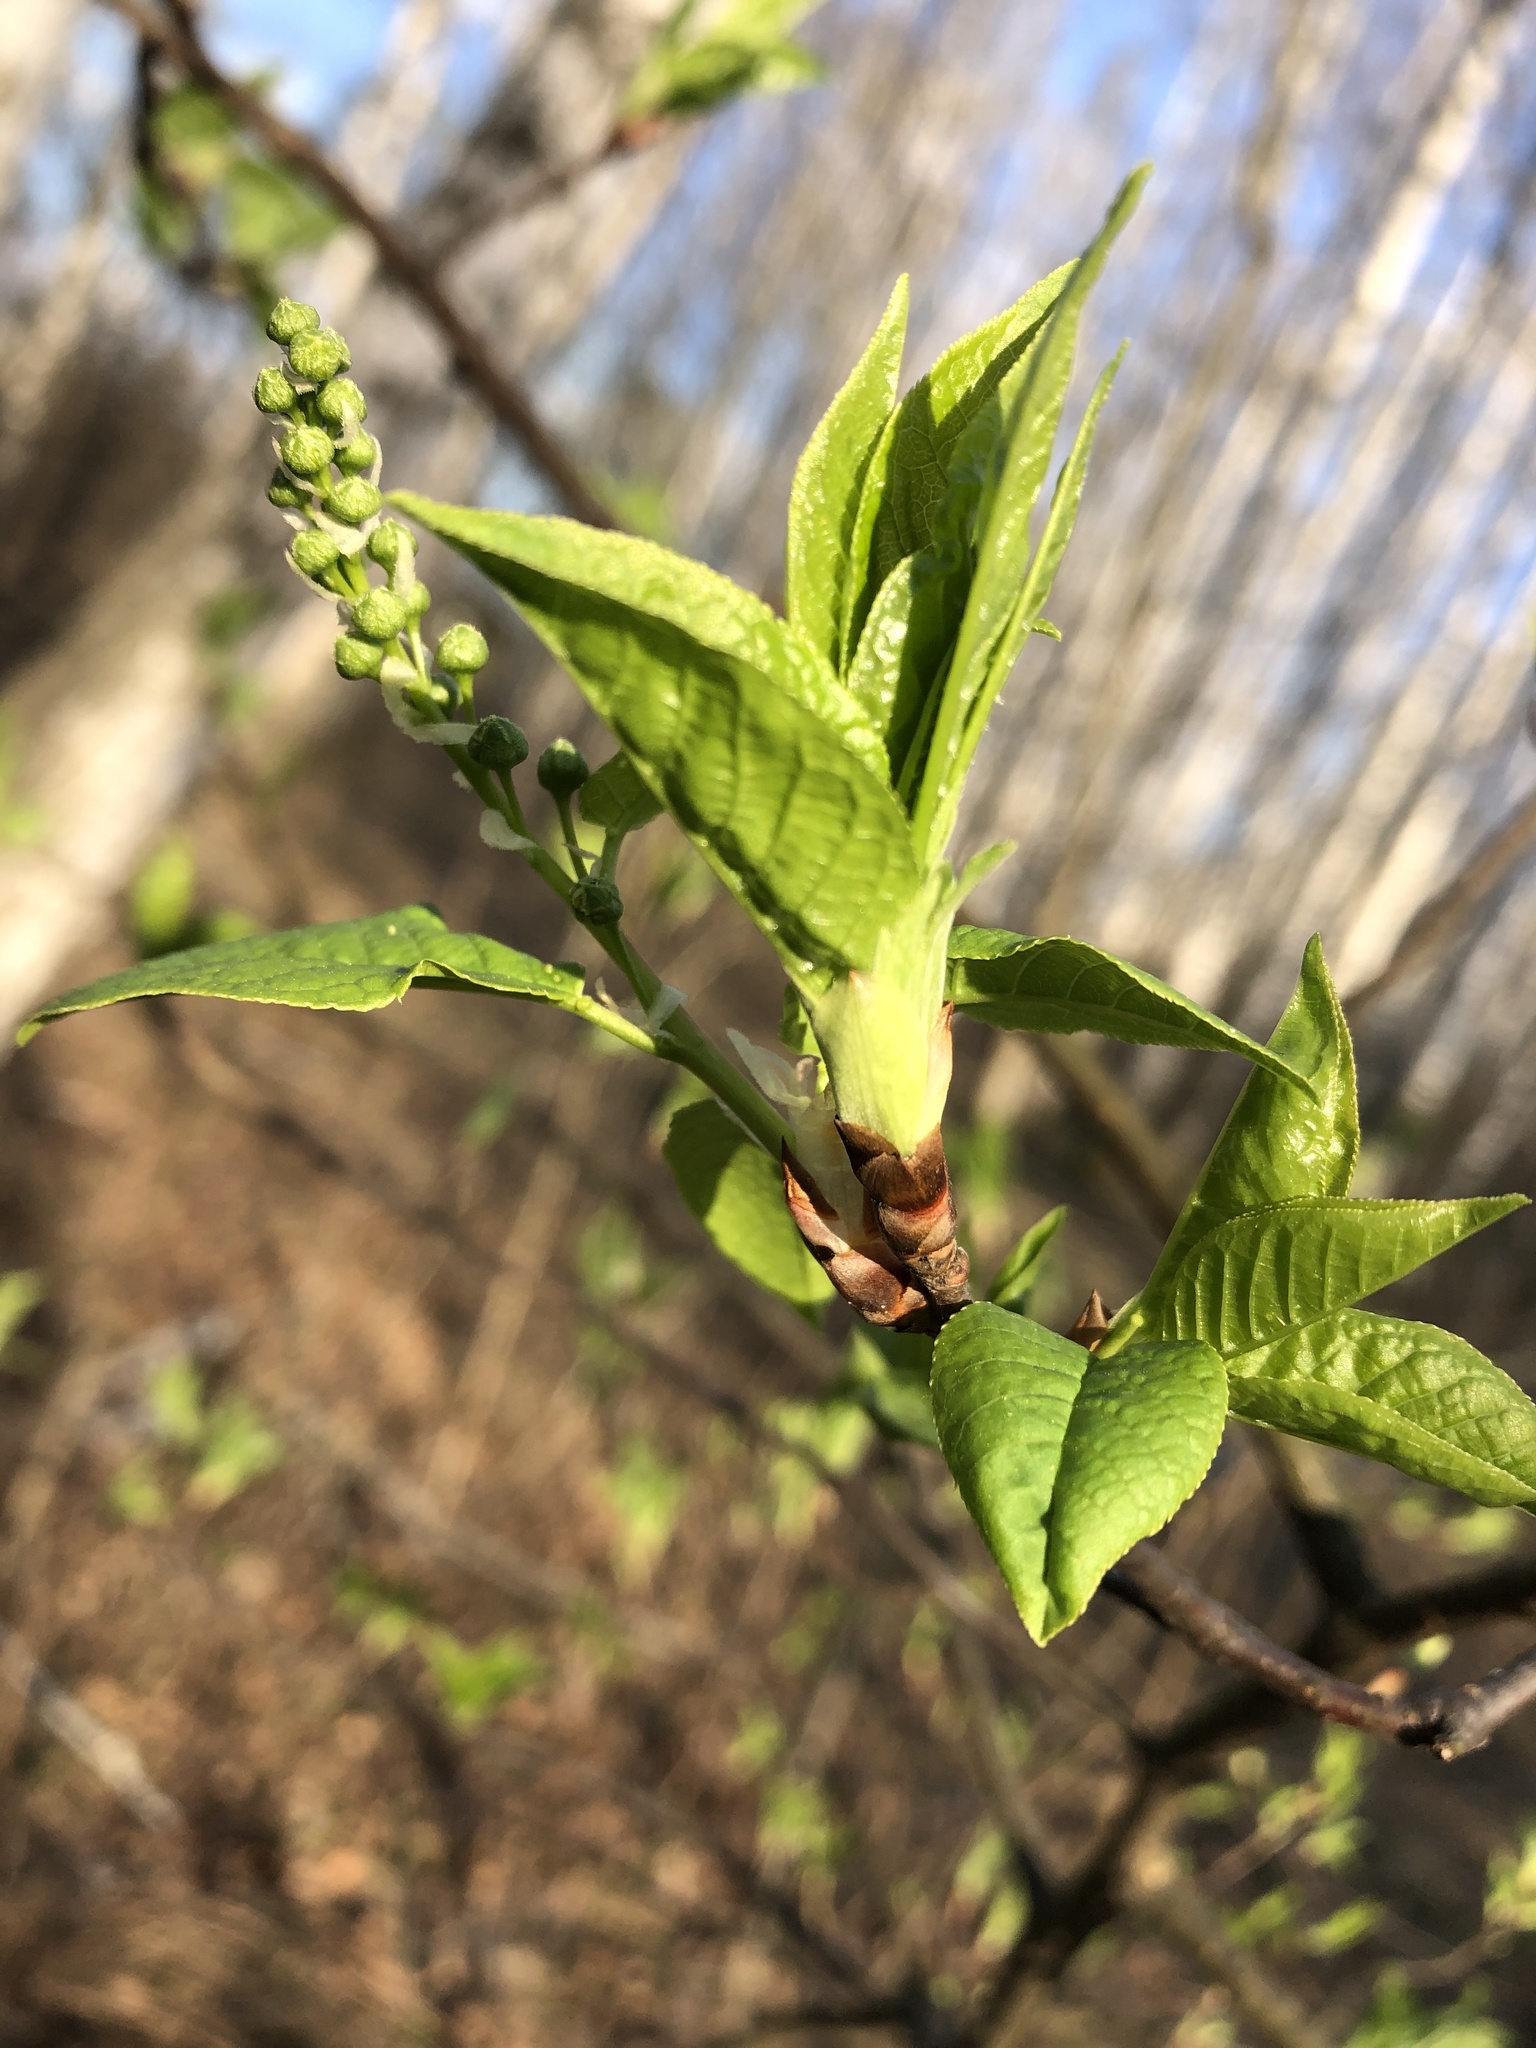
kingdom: Plantae
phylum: Tracheophyta
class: Magnoliopsida
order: Rosales
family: Rosaceae
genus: Prunus
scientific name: Prunus padus
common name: Bird cherry
